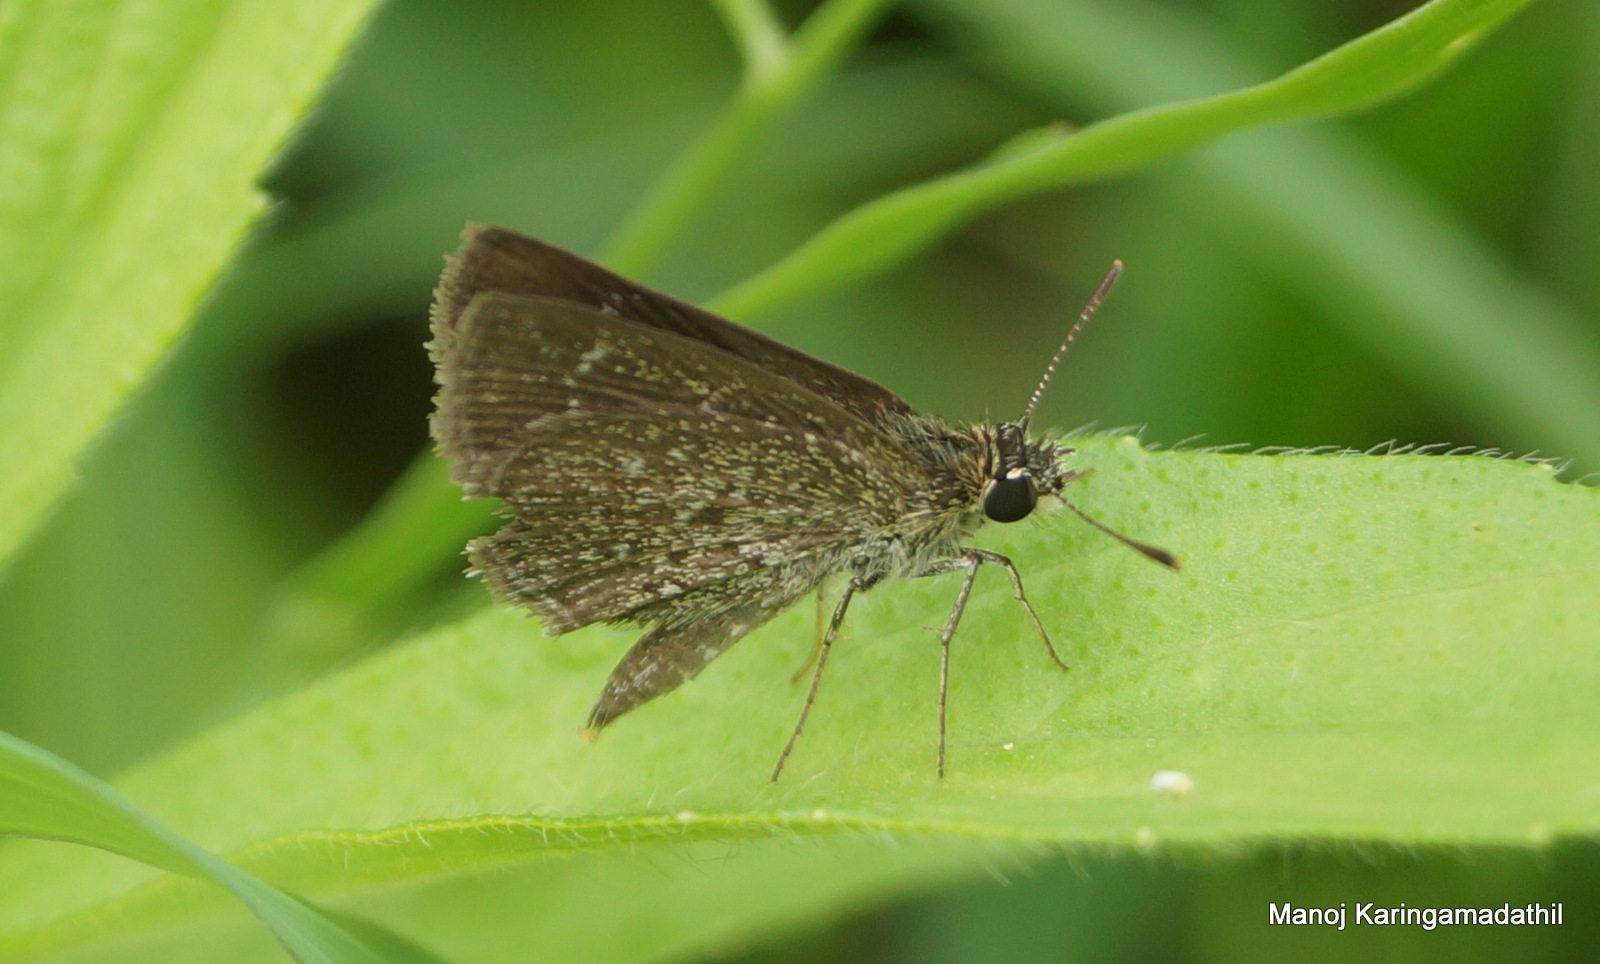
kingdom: Animalia
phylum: Arthropoda
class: Insecta
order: Lepidoptera
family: Hesperiidae
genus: Aeromachus
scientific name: Aeromachus pygmaeus
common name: Pygmy scrub hopper
